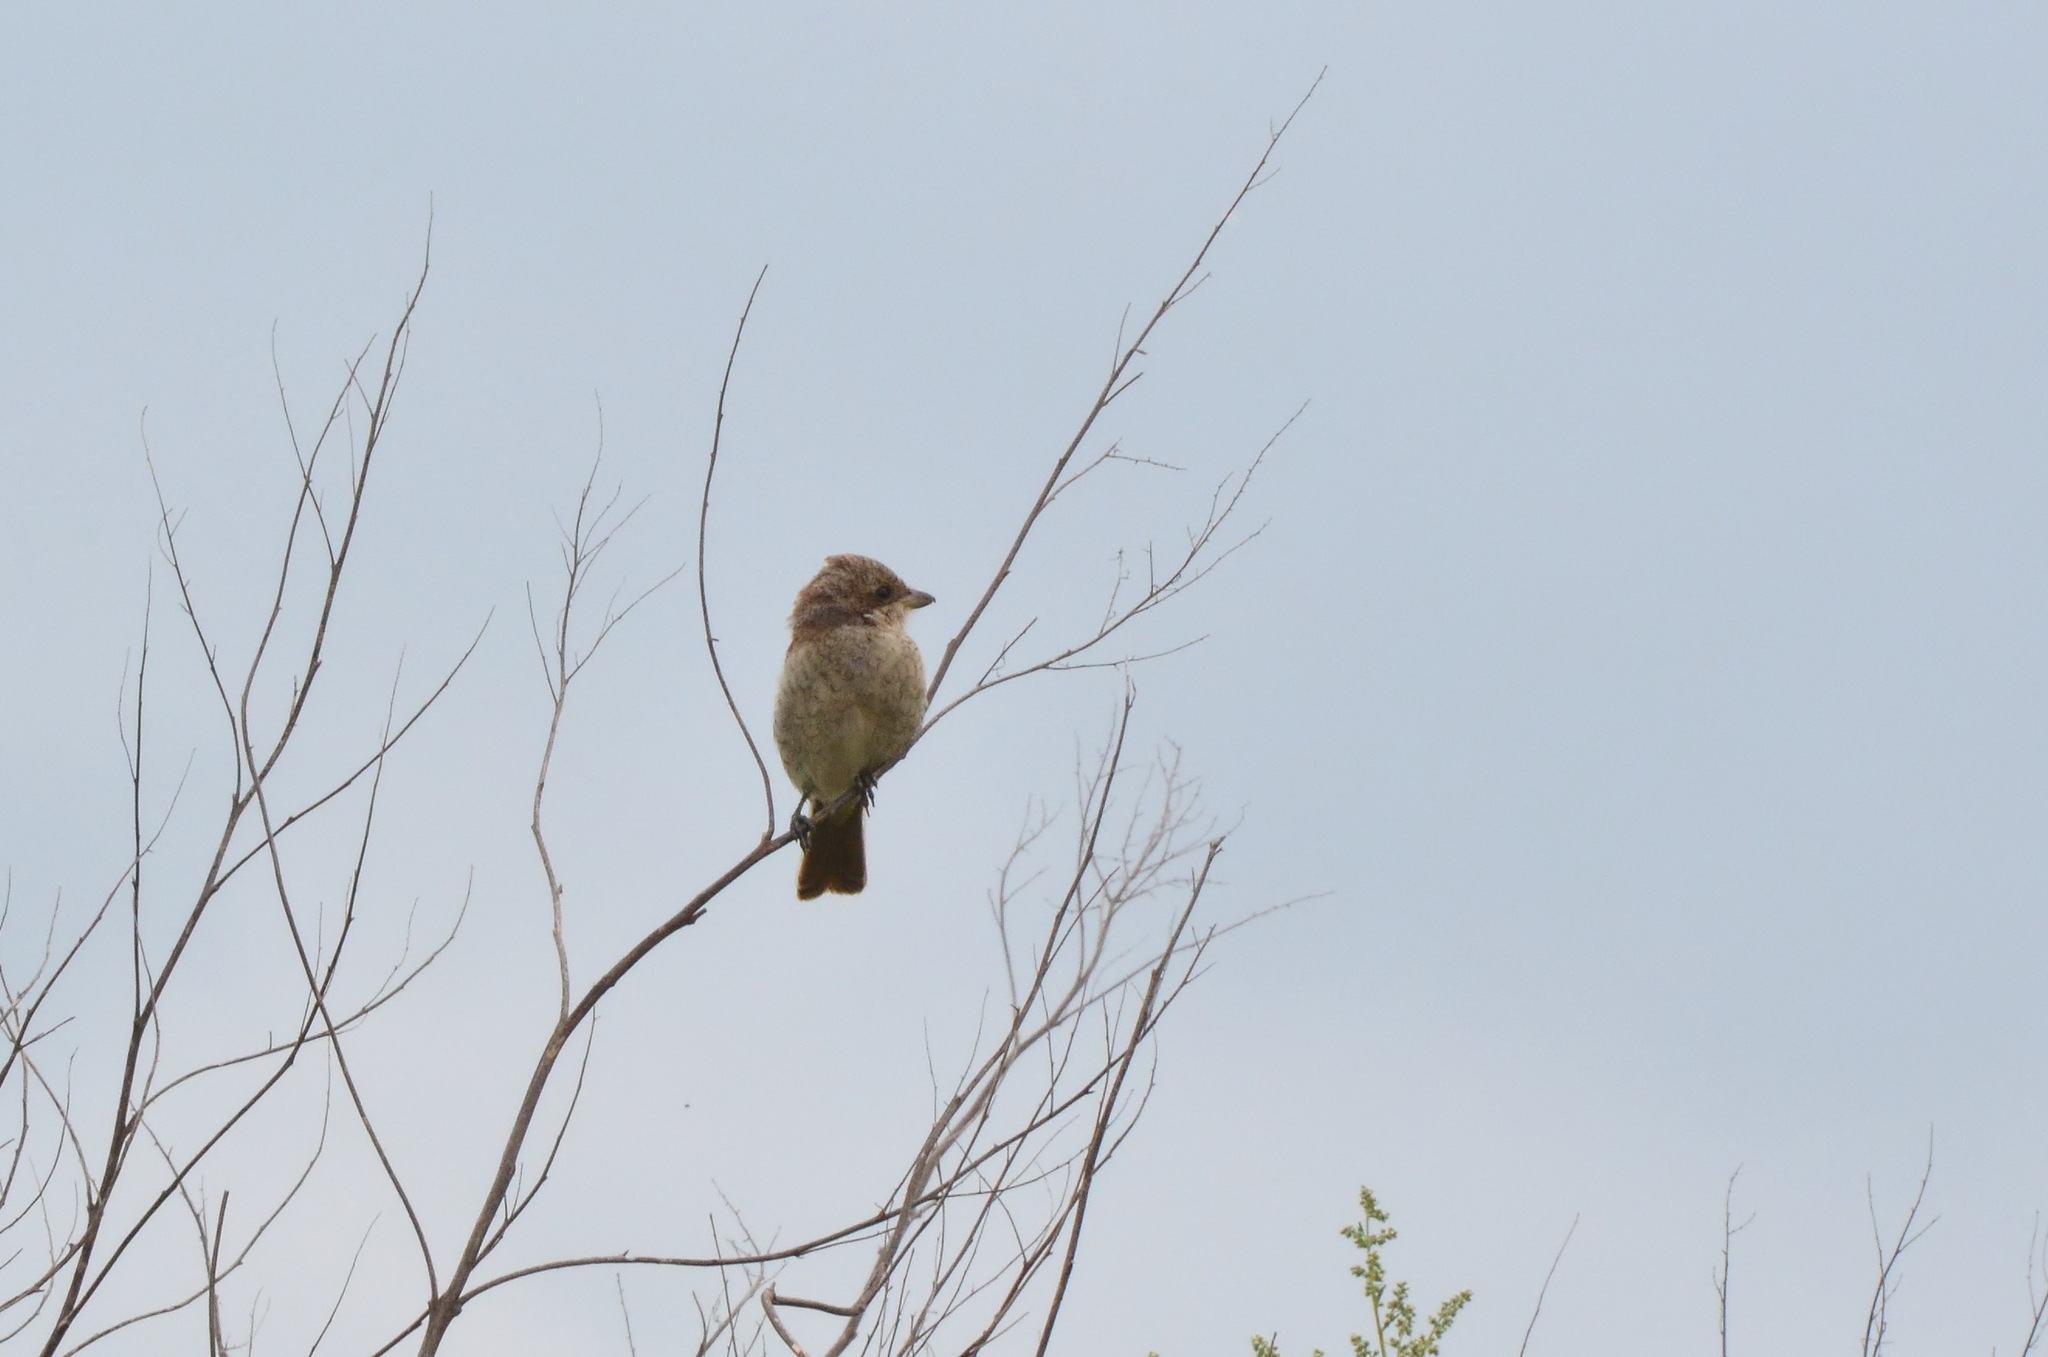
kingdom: Animalia
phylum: Chordata
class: Aves
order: Passeriformes
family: Laniidae
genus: Lanius
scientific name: Lanius collurio
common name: Red-backed shrike
